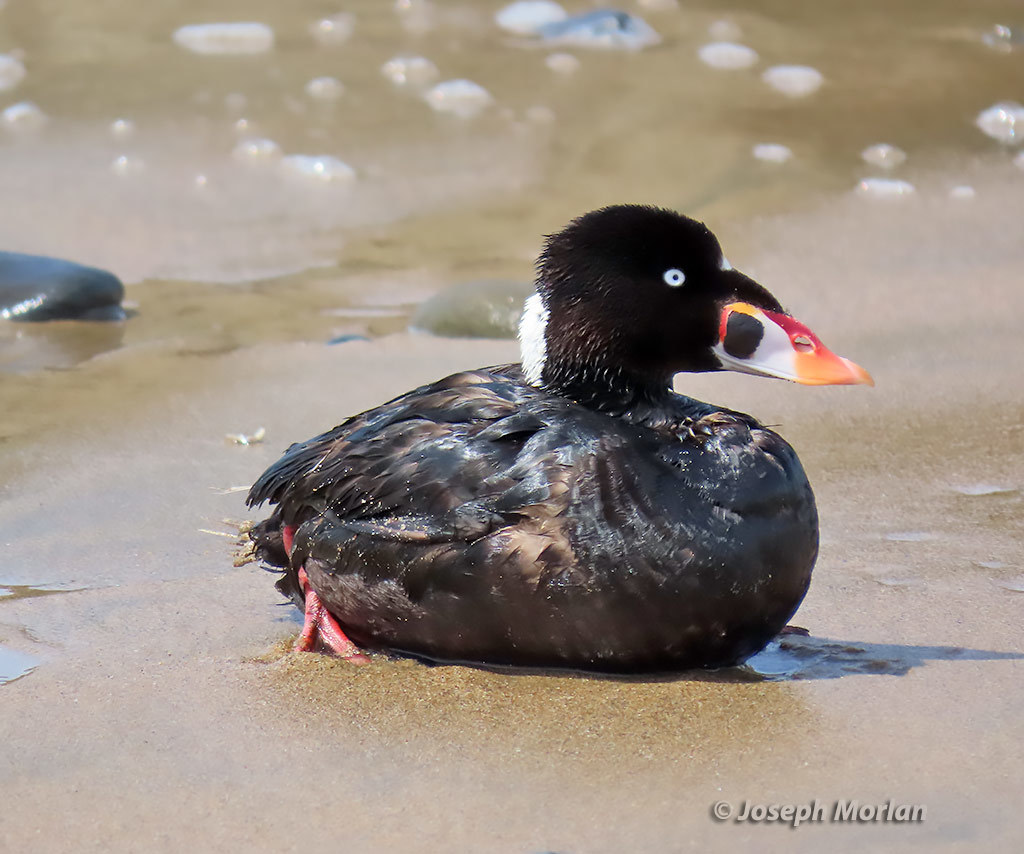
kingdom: Animalia
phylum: Chordata
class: Aves
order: Anseriformes
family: Anatidae
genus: Melanitta
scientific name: Melanitta perspicillata
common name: Surf scoter
